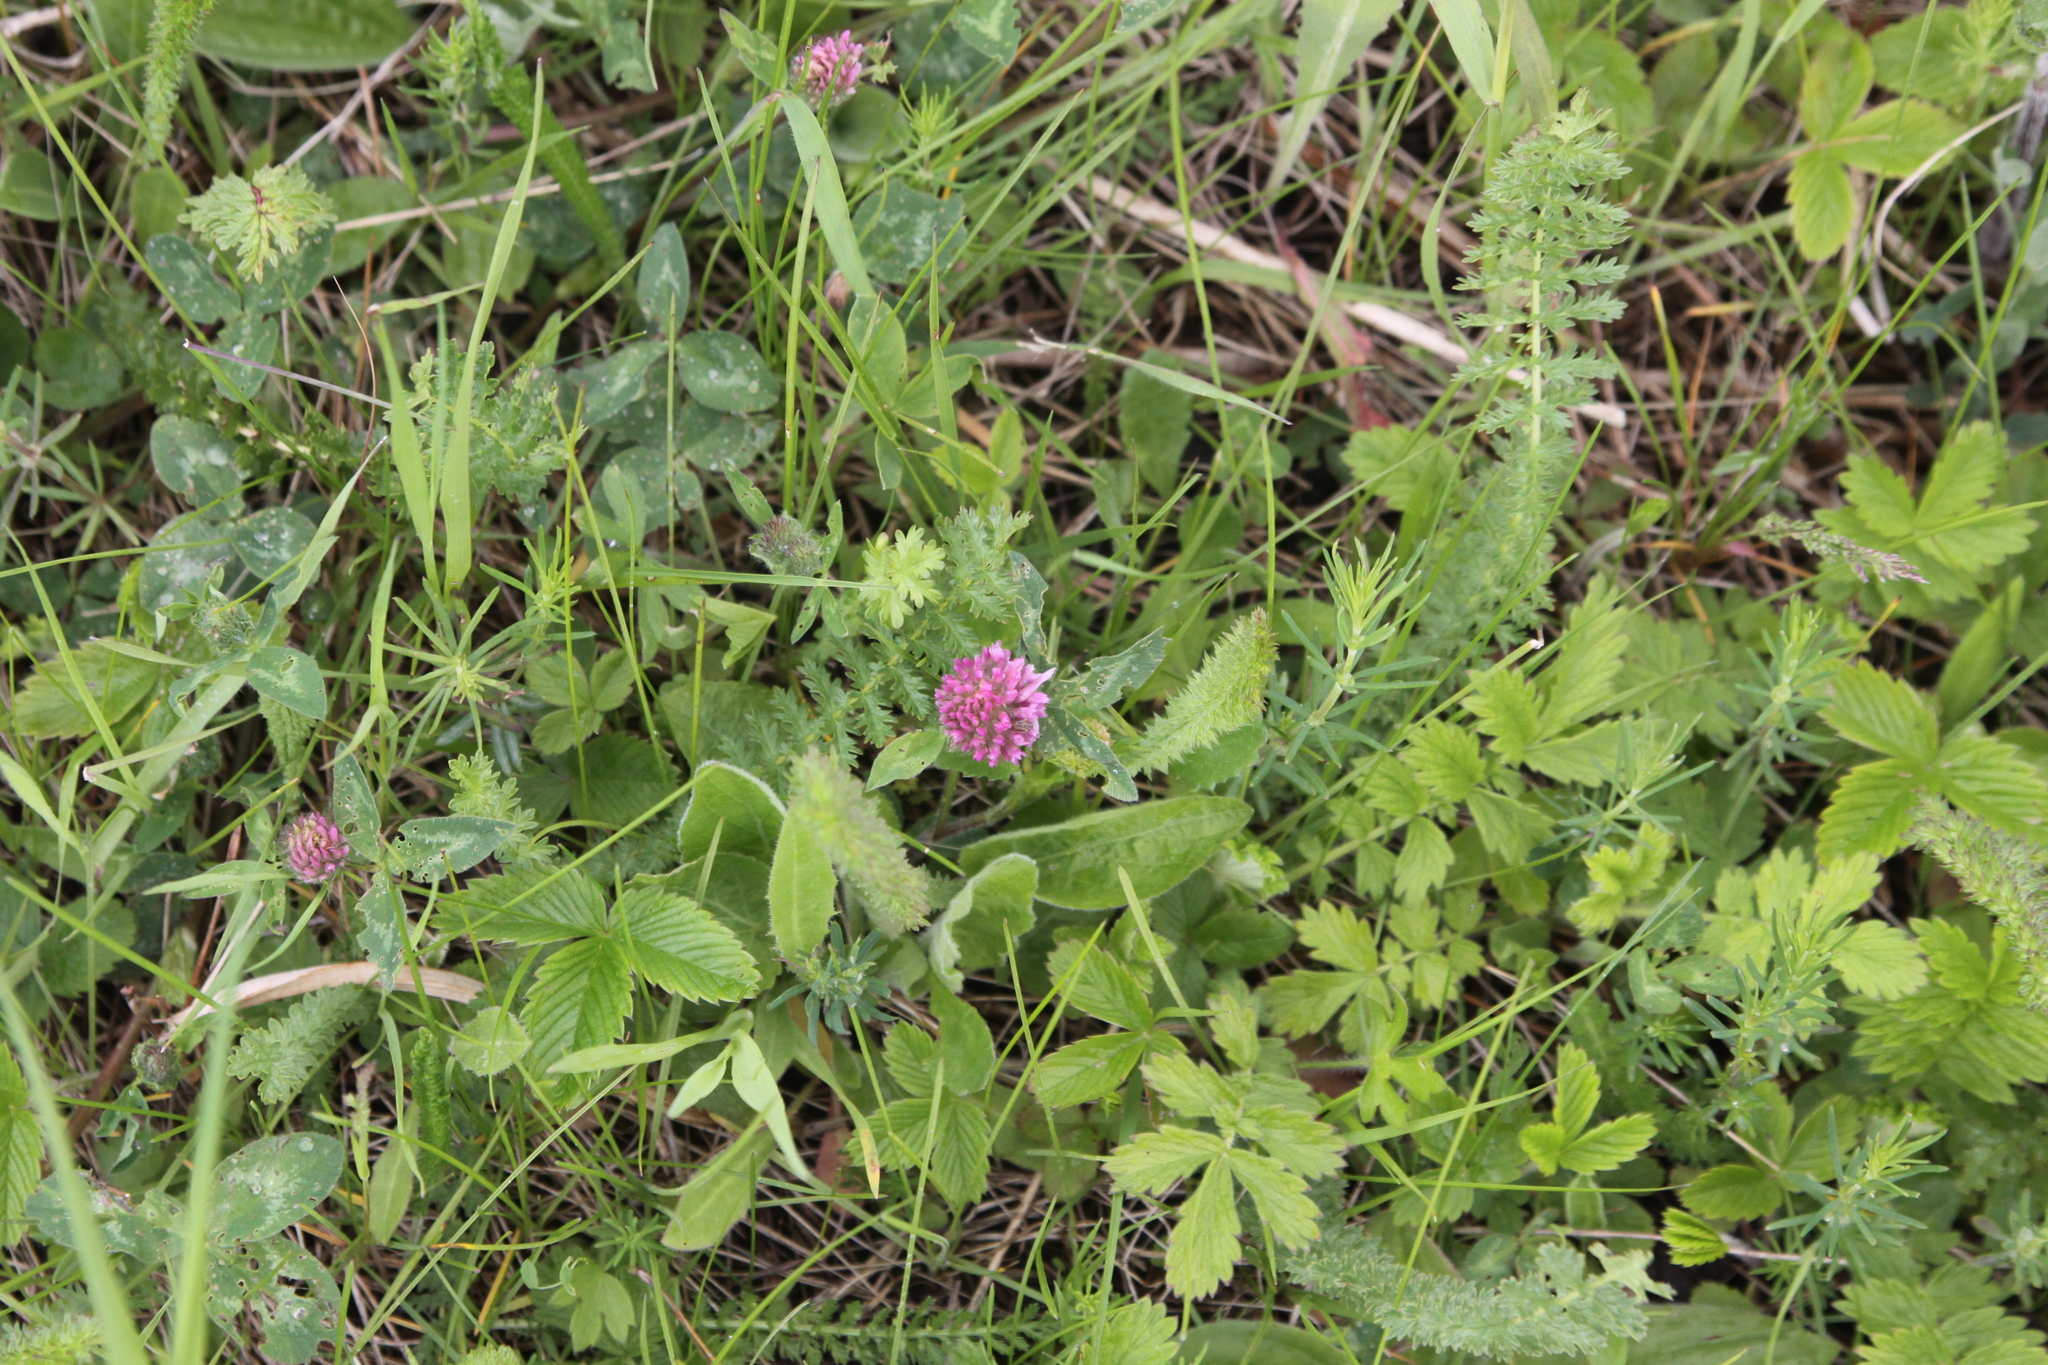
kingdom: Plantae
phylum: Tracheophyta
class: Magnoliopsida
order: Fabales
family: Fabaceae
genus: Trifolium
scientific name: Trifolium pratense
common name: Red clover
